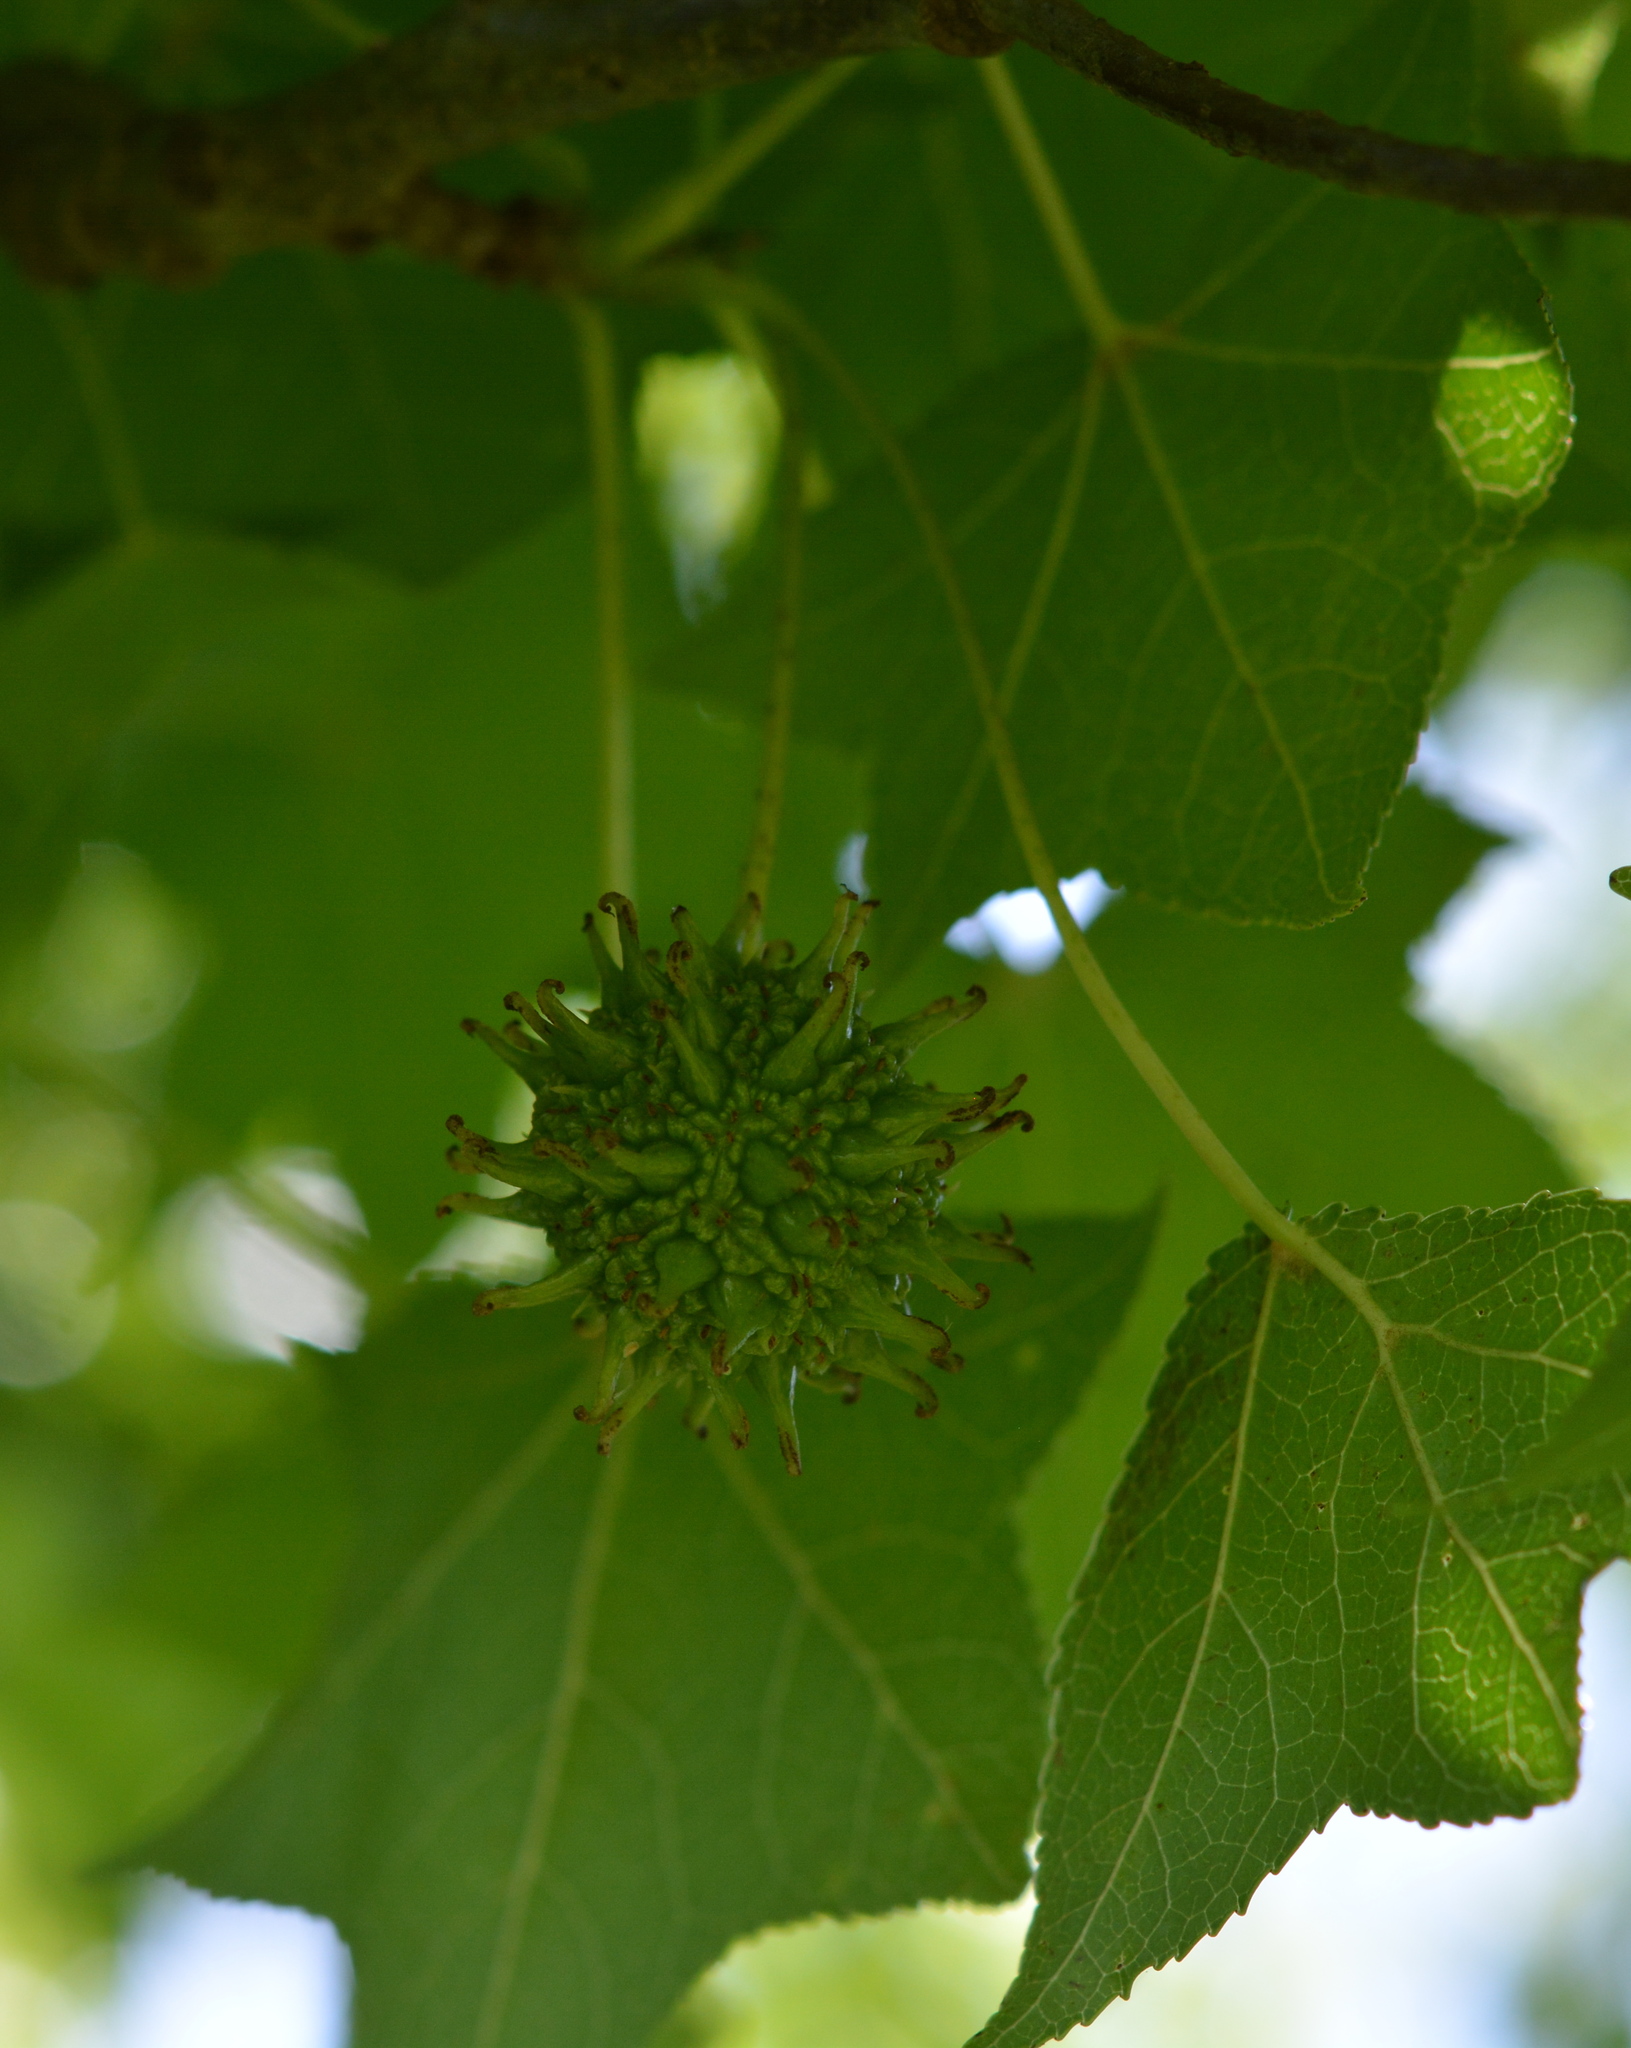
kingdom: Plantae
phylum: Tracheophyta
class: Magnoliopsida
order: Saxifragales
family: Altingiaceae
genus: Liquidambar
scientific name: Liquidambar styraciflua
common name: Sweet gum
